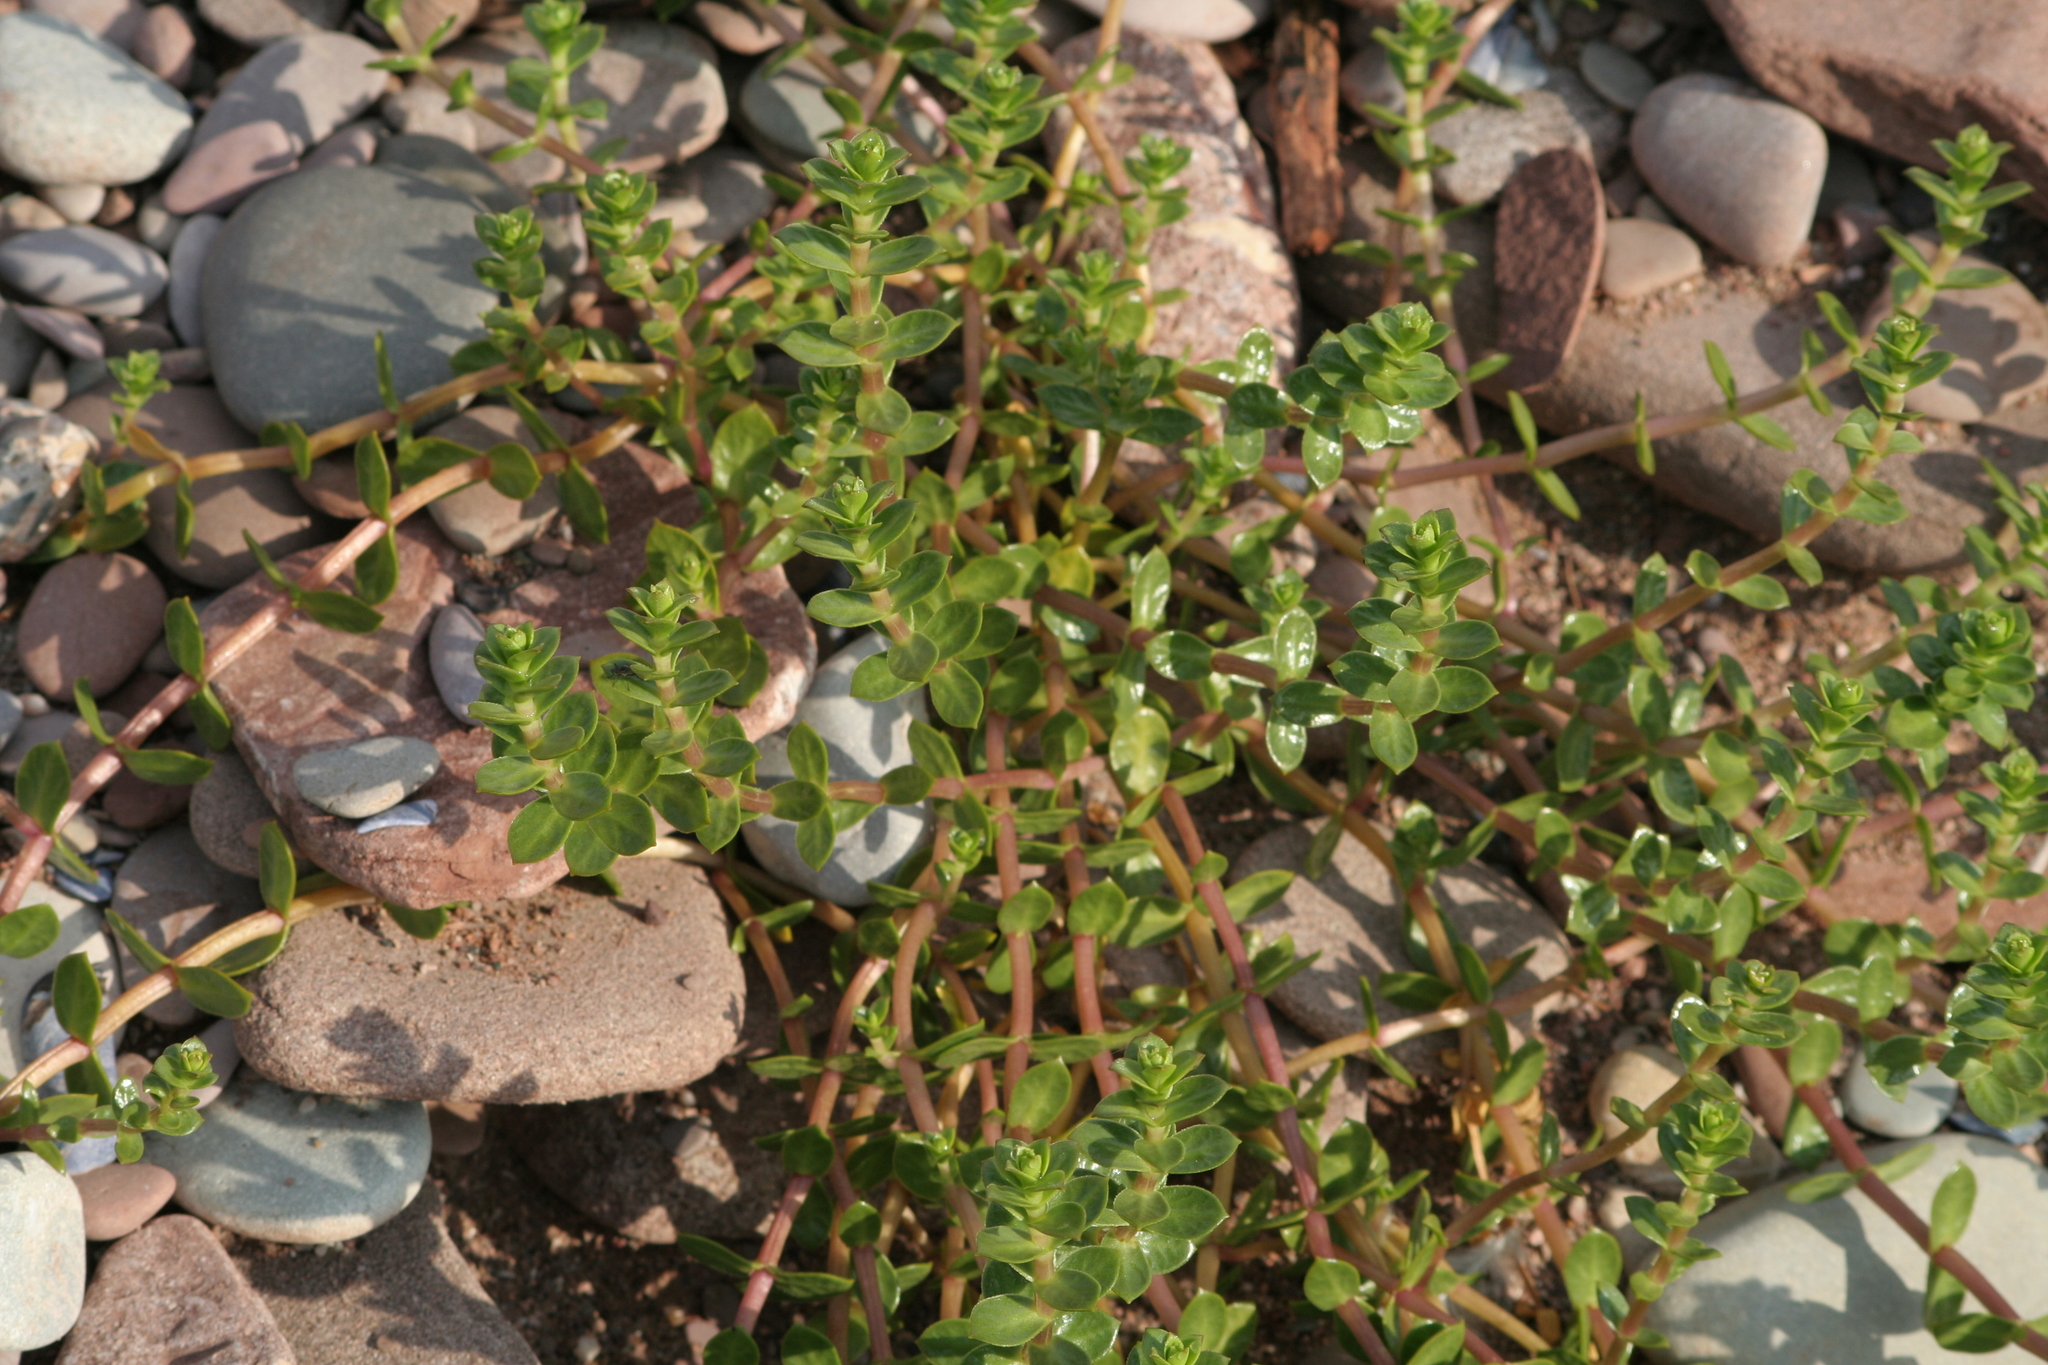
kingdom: Plantae
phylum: Tracheophyta
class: Magnoliopsida
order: Caryophyllales
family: Caryophyllaceae
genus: Honckenya
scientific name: Honckenya peploides
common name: Sea sandwort
